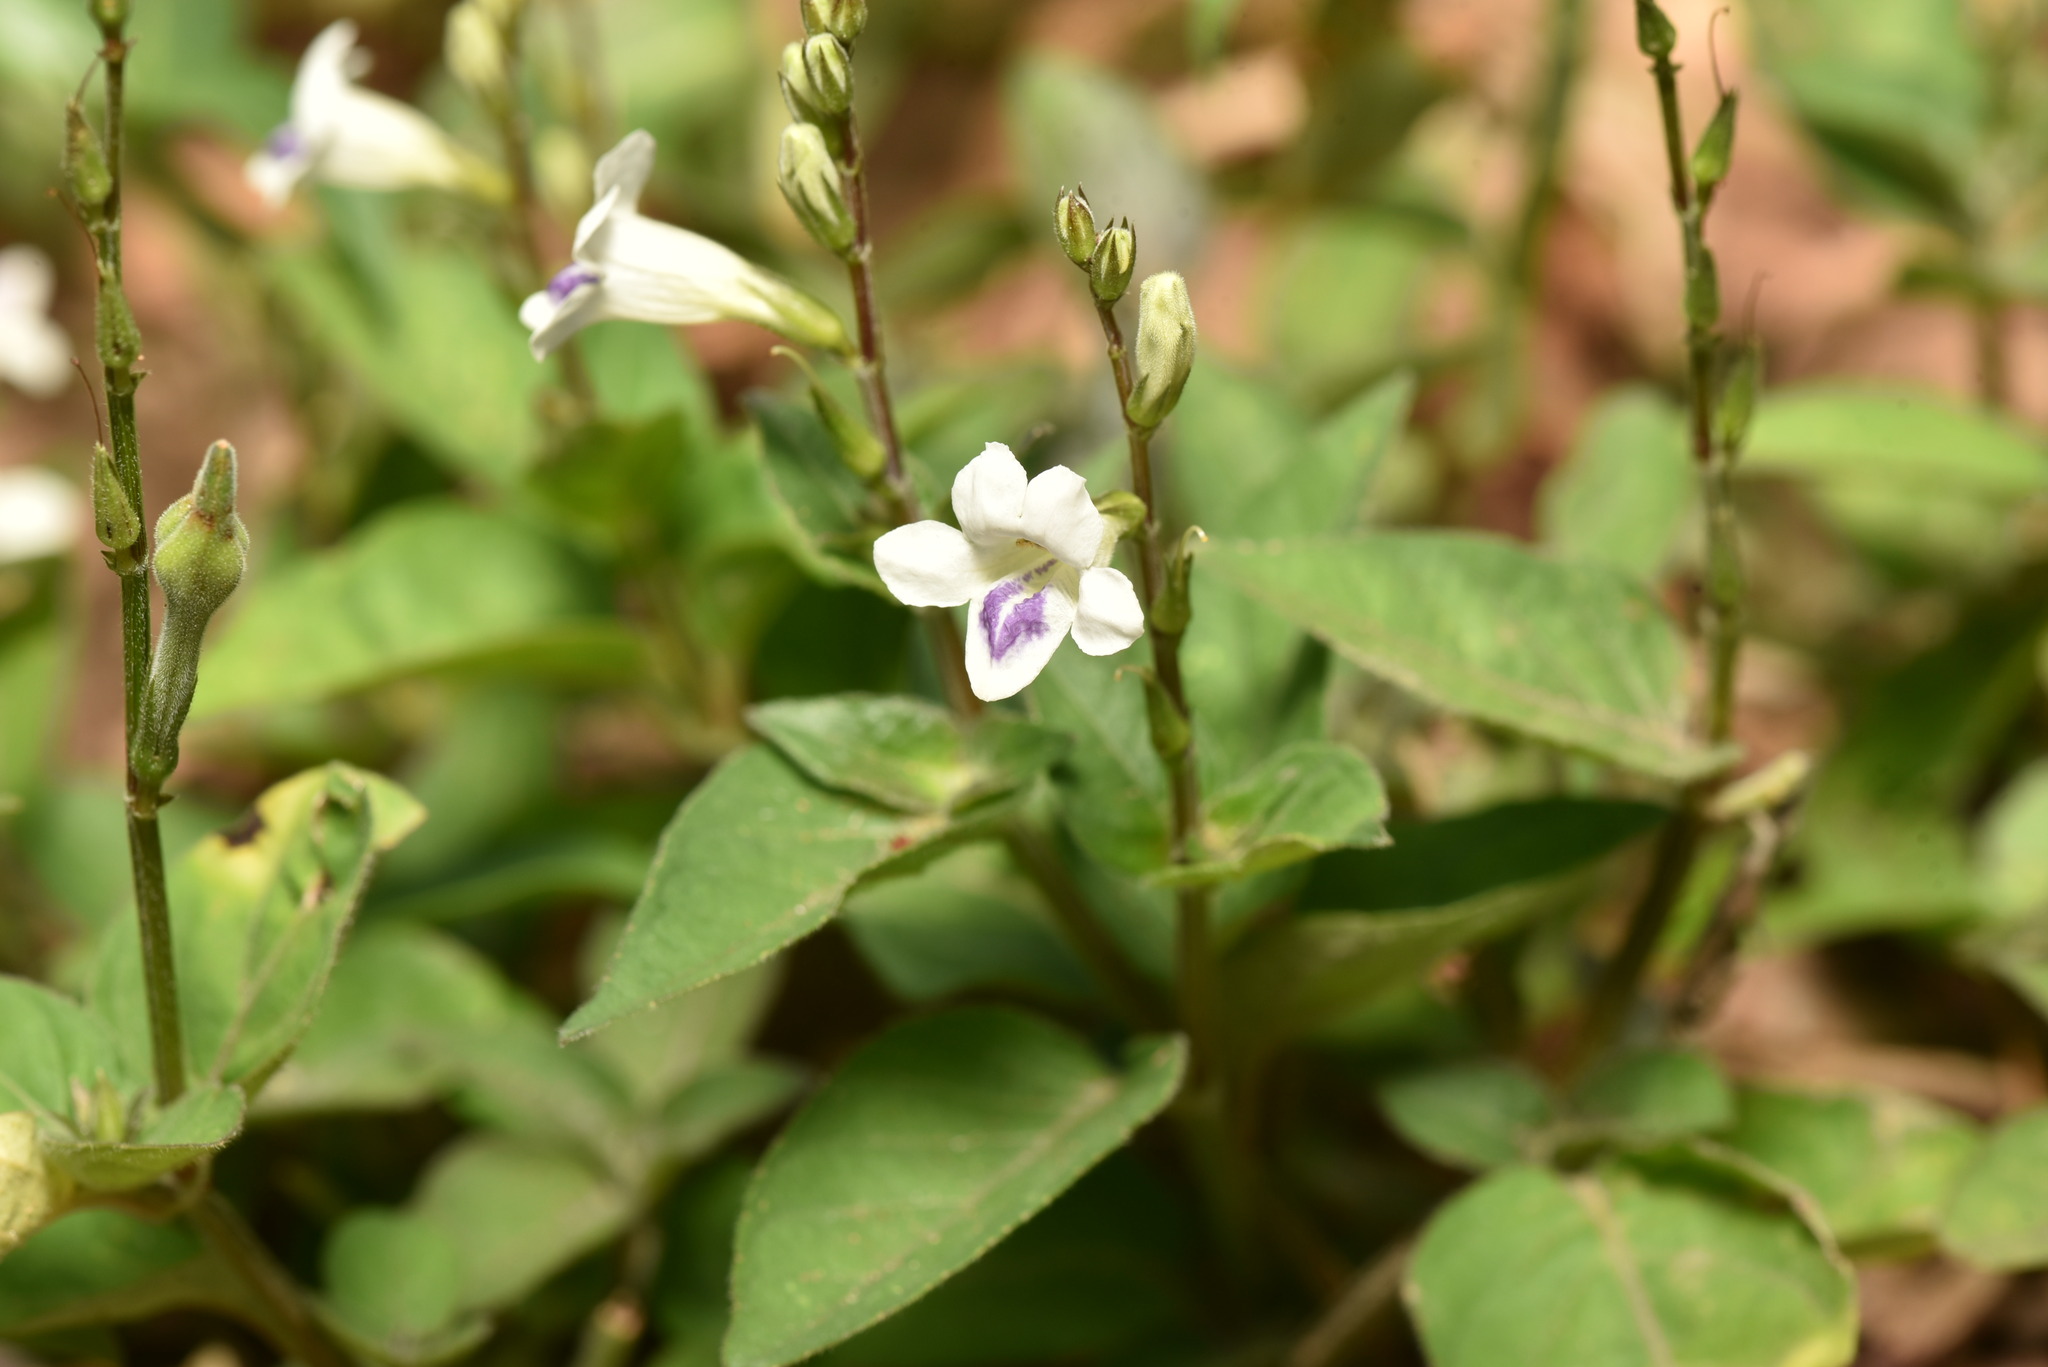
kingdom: Plantae
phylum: Tracheophyta
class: Magnoliopsida
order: Lamiales
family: Acanthaceae
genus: Asystasia
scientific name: Asystasia intrusa
